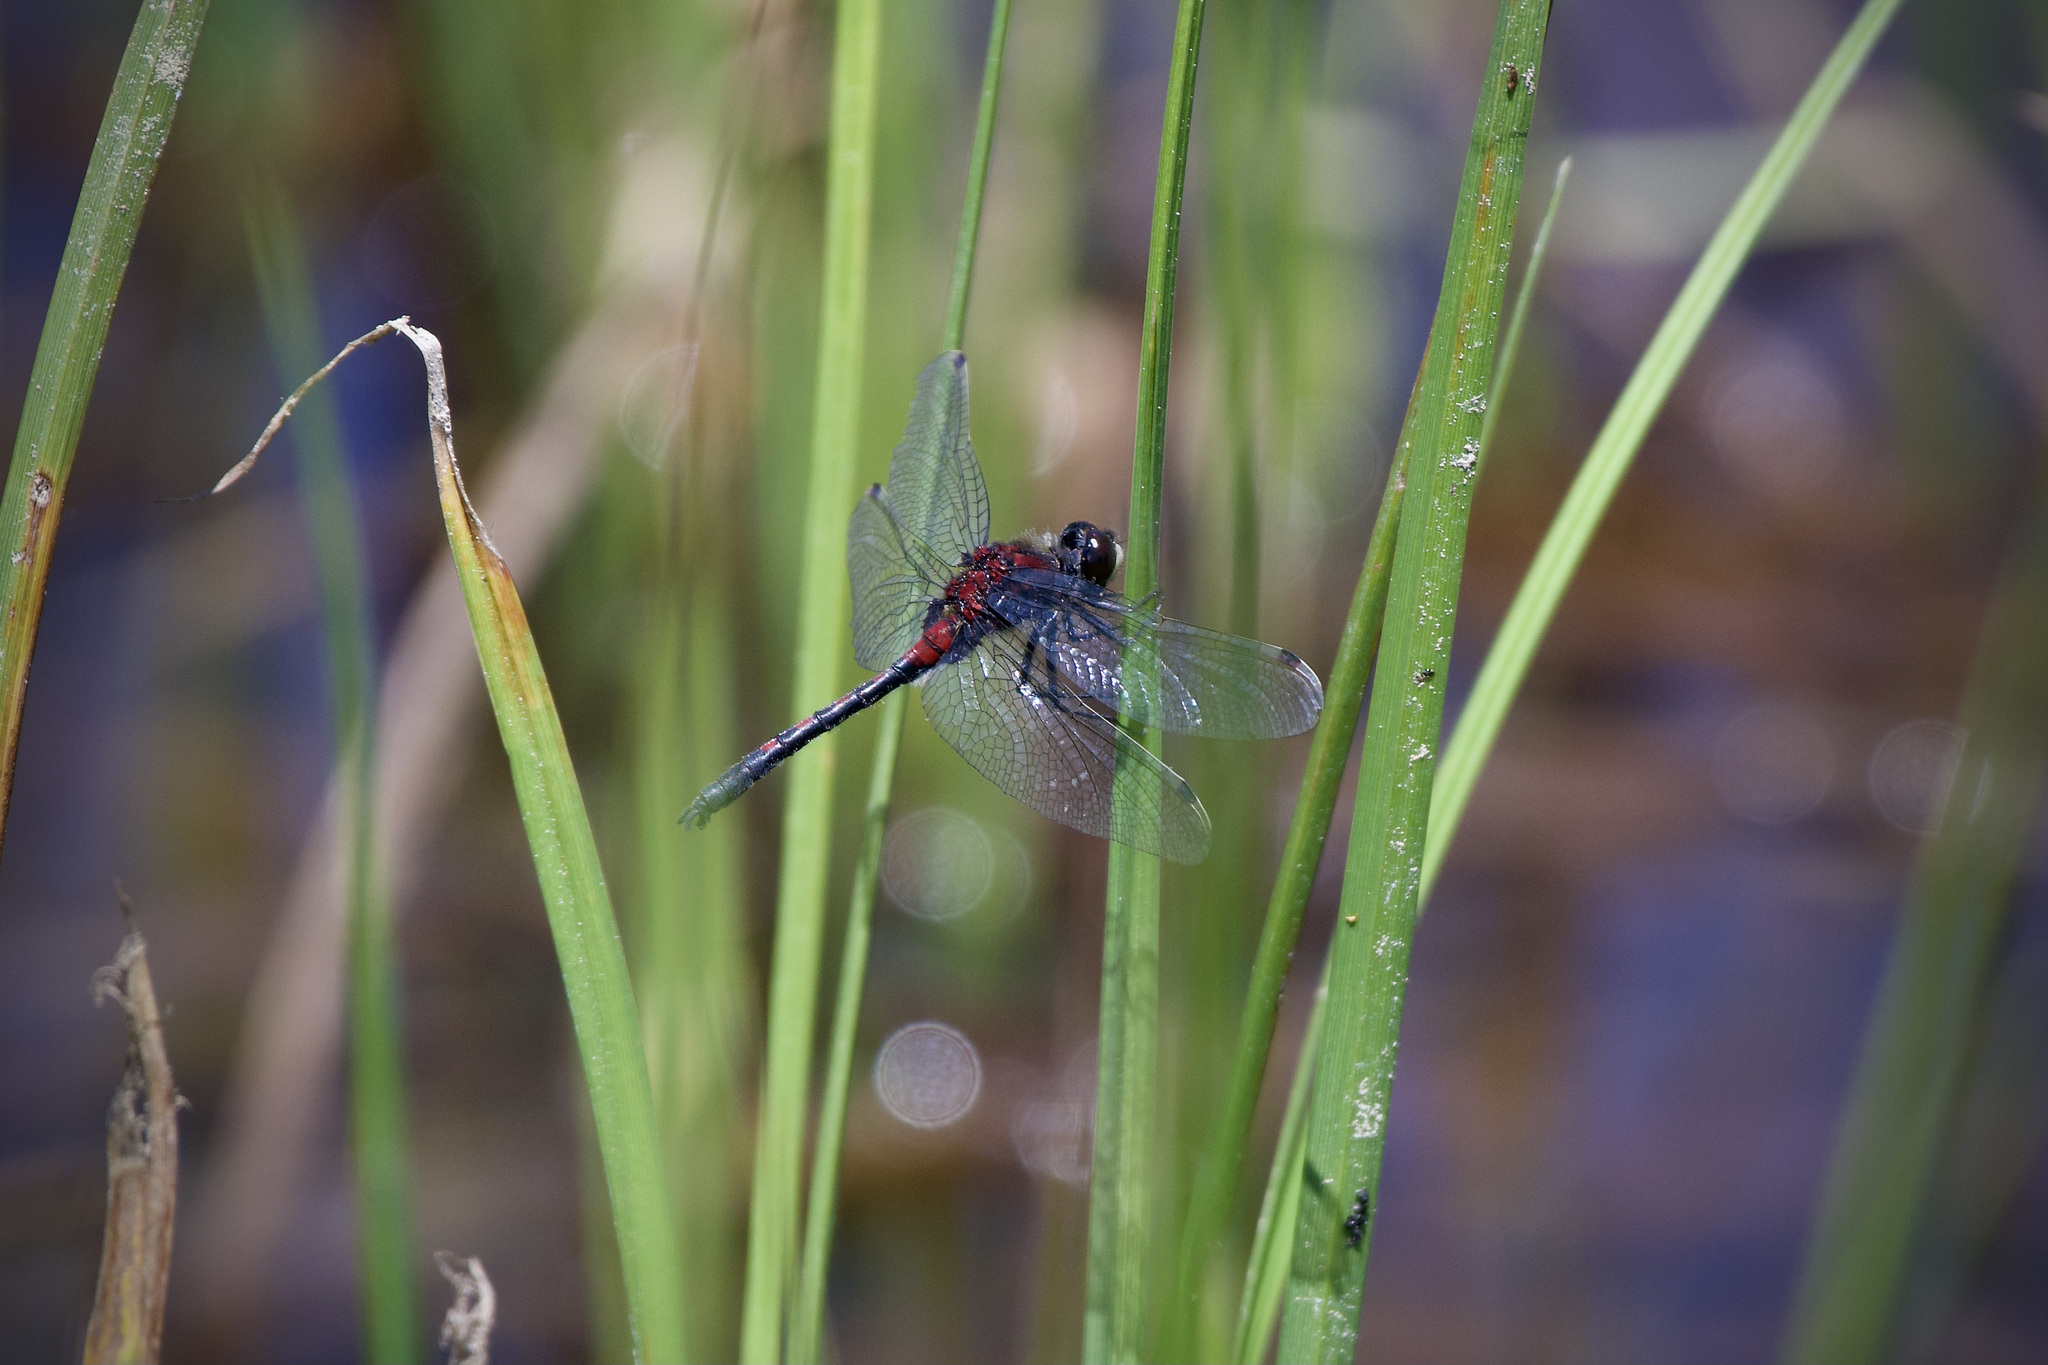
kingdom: Animalia
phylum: Arthropoda
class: Insecta
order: Odonata
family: Libellulidae
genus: Leucorrhinia
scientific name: Leucorrhinia hudsonica
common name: Hudsonian whiteface
